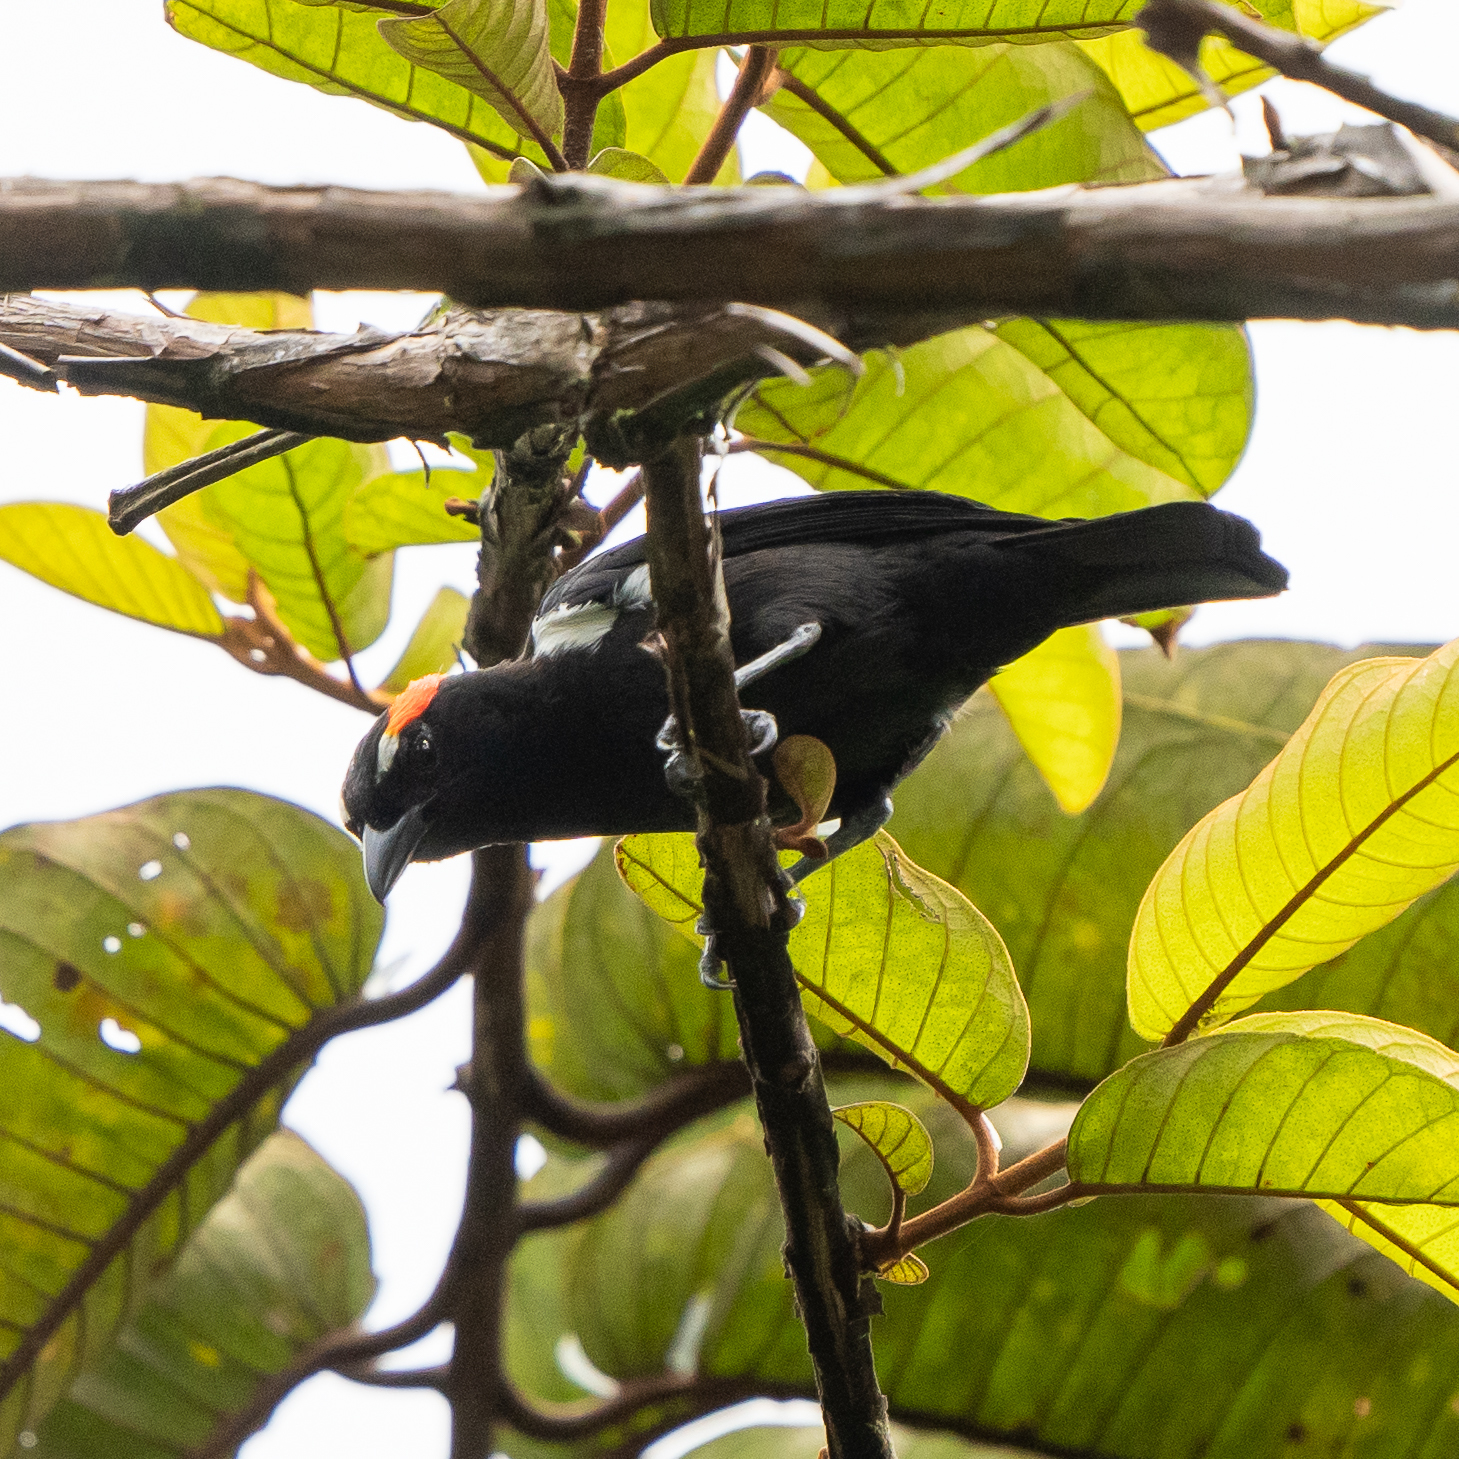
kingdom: Animalia
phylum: Chordata
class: Aves
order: Passeriformes
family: Thraupidae
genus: Heterospingus
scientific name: Heterospingus xanthopygius
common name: Scarlet-browed tanager
